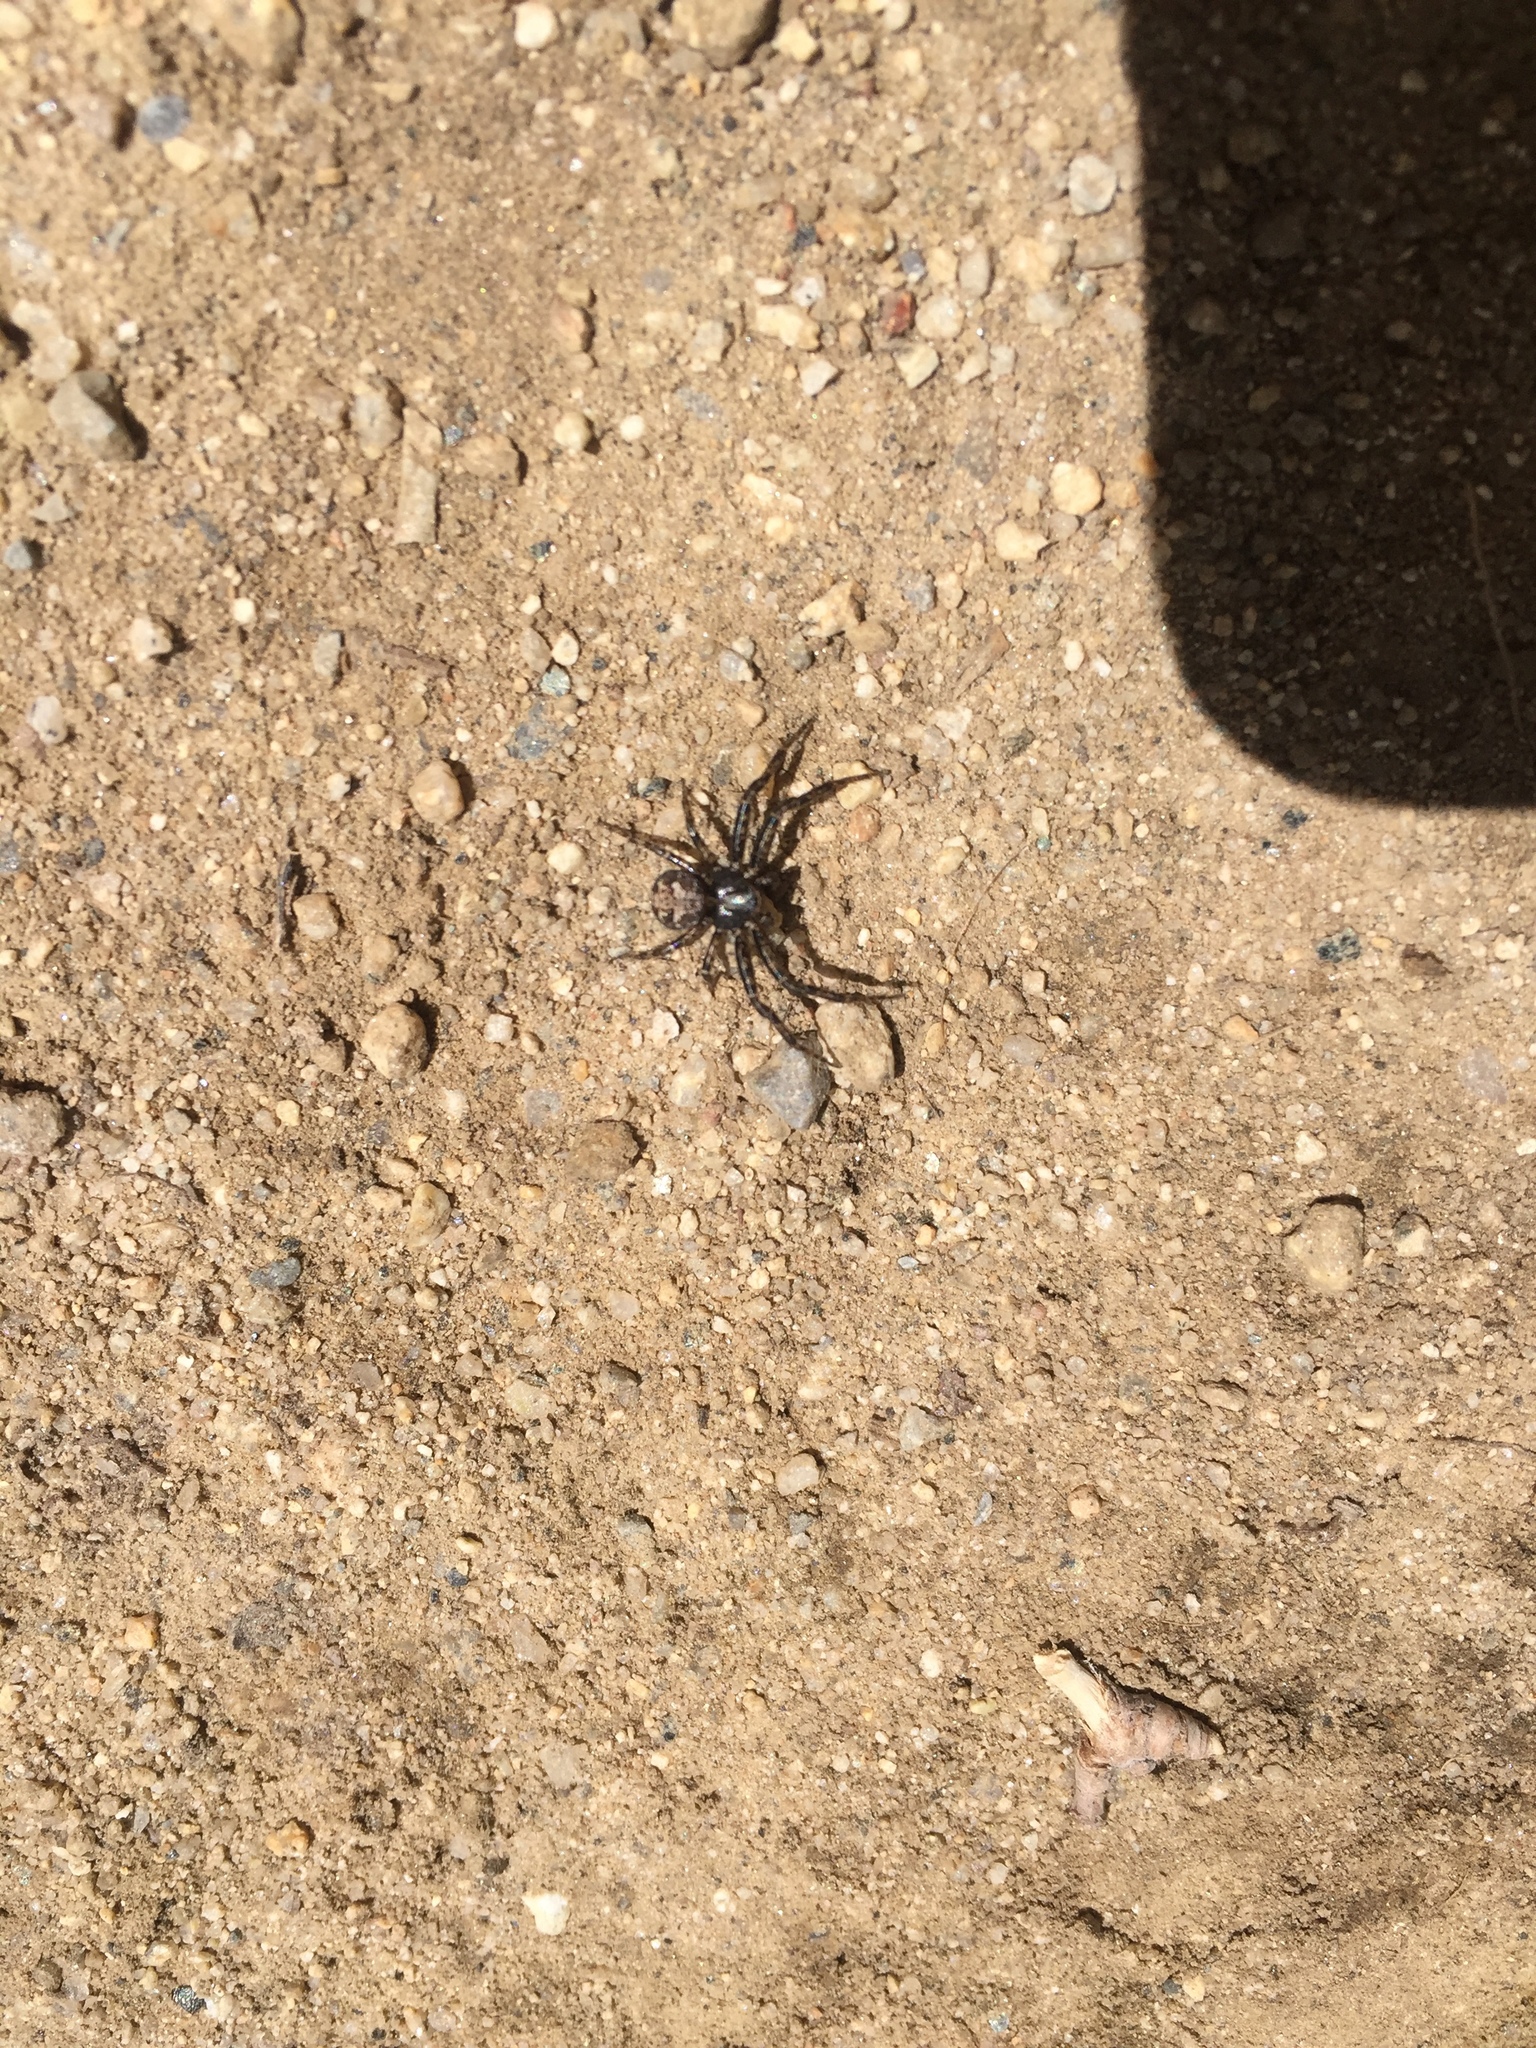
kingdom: Animalia
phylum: Arthropoda
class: Arachnida
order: Araneae
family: Thomisidae
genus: Bassaniana
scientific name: Bassaniana utahensis
